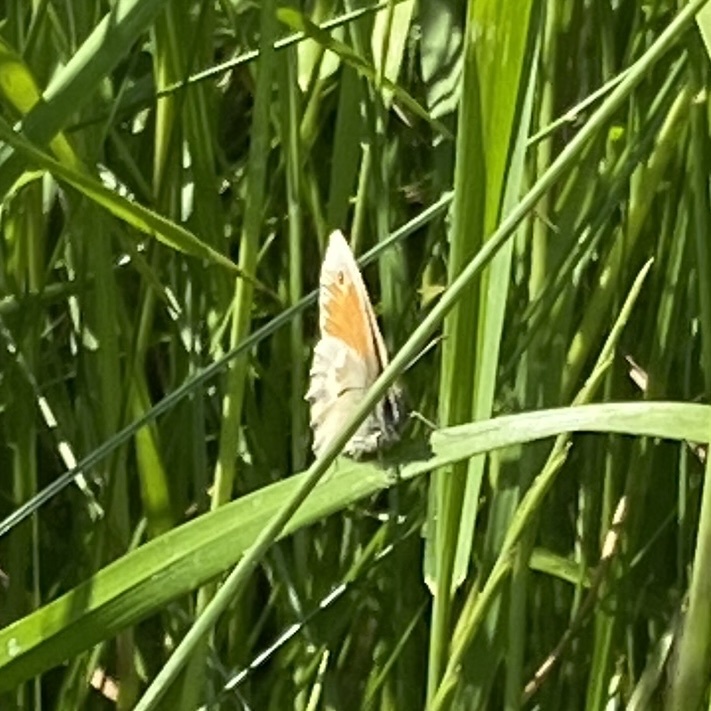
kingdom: Animalia
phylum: Arthropoda
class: Insecta
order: Lepidoptera
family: Nymphalidae
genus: Coenonympha
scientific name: Coenonympha pamphilus
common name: Small heath
